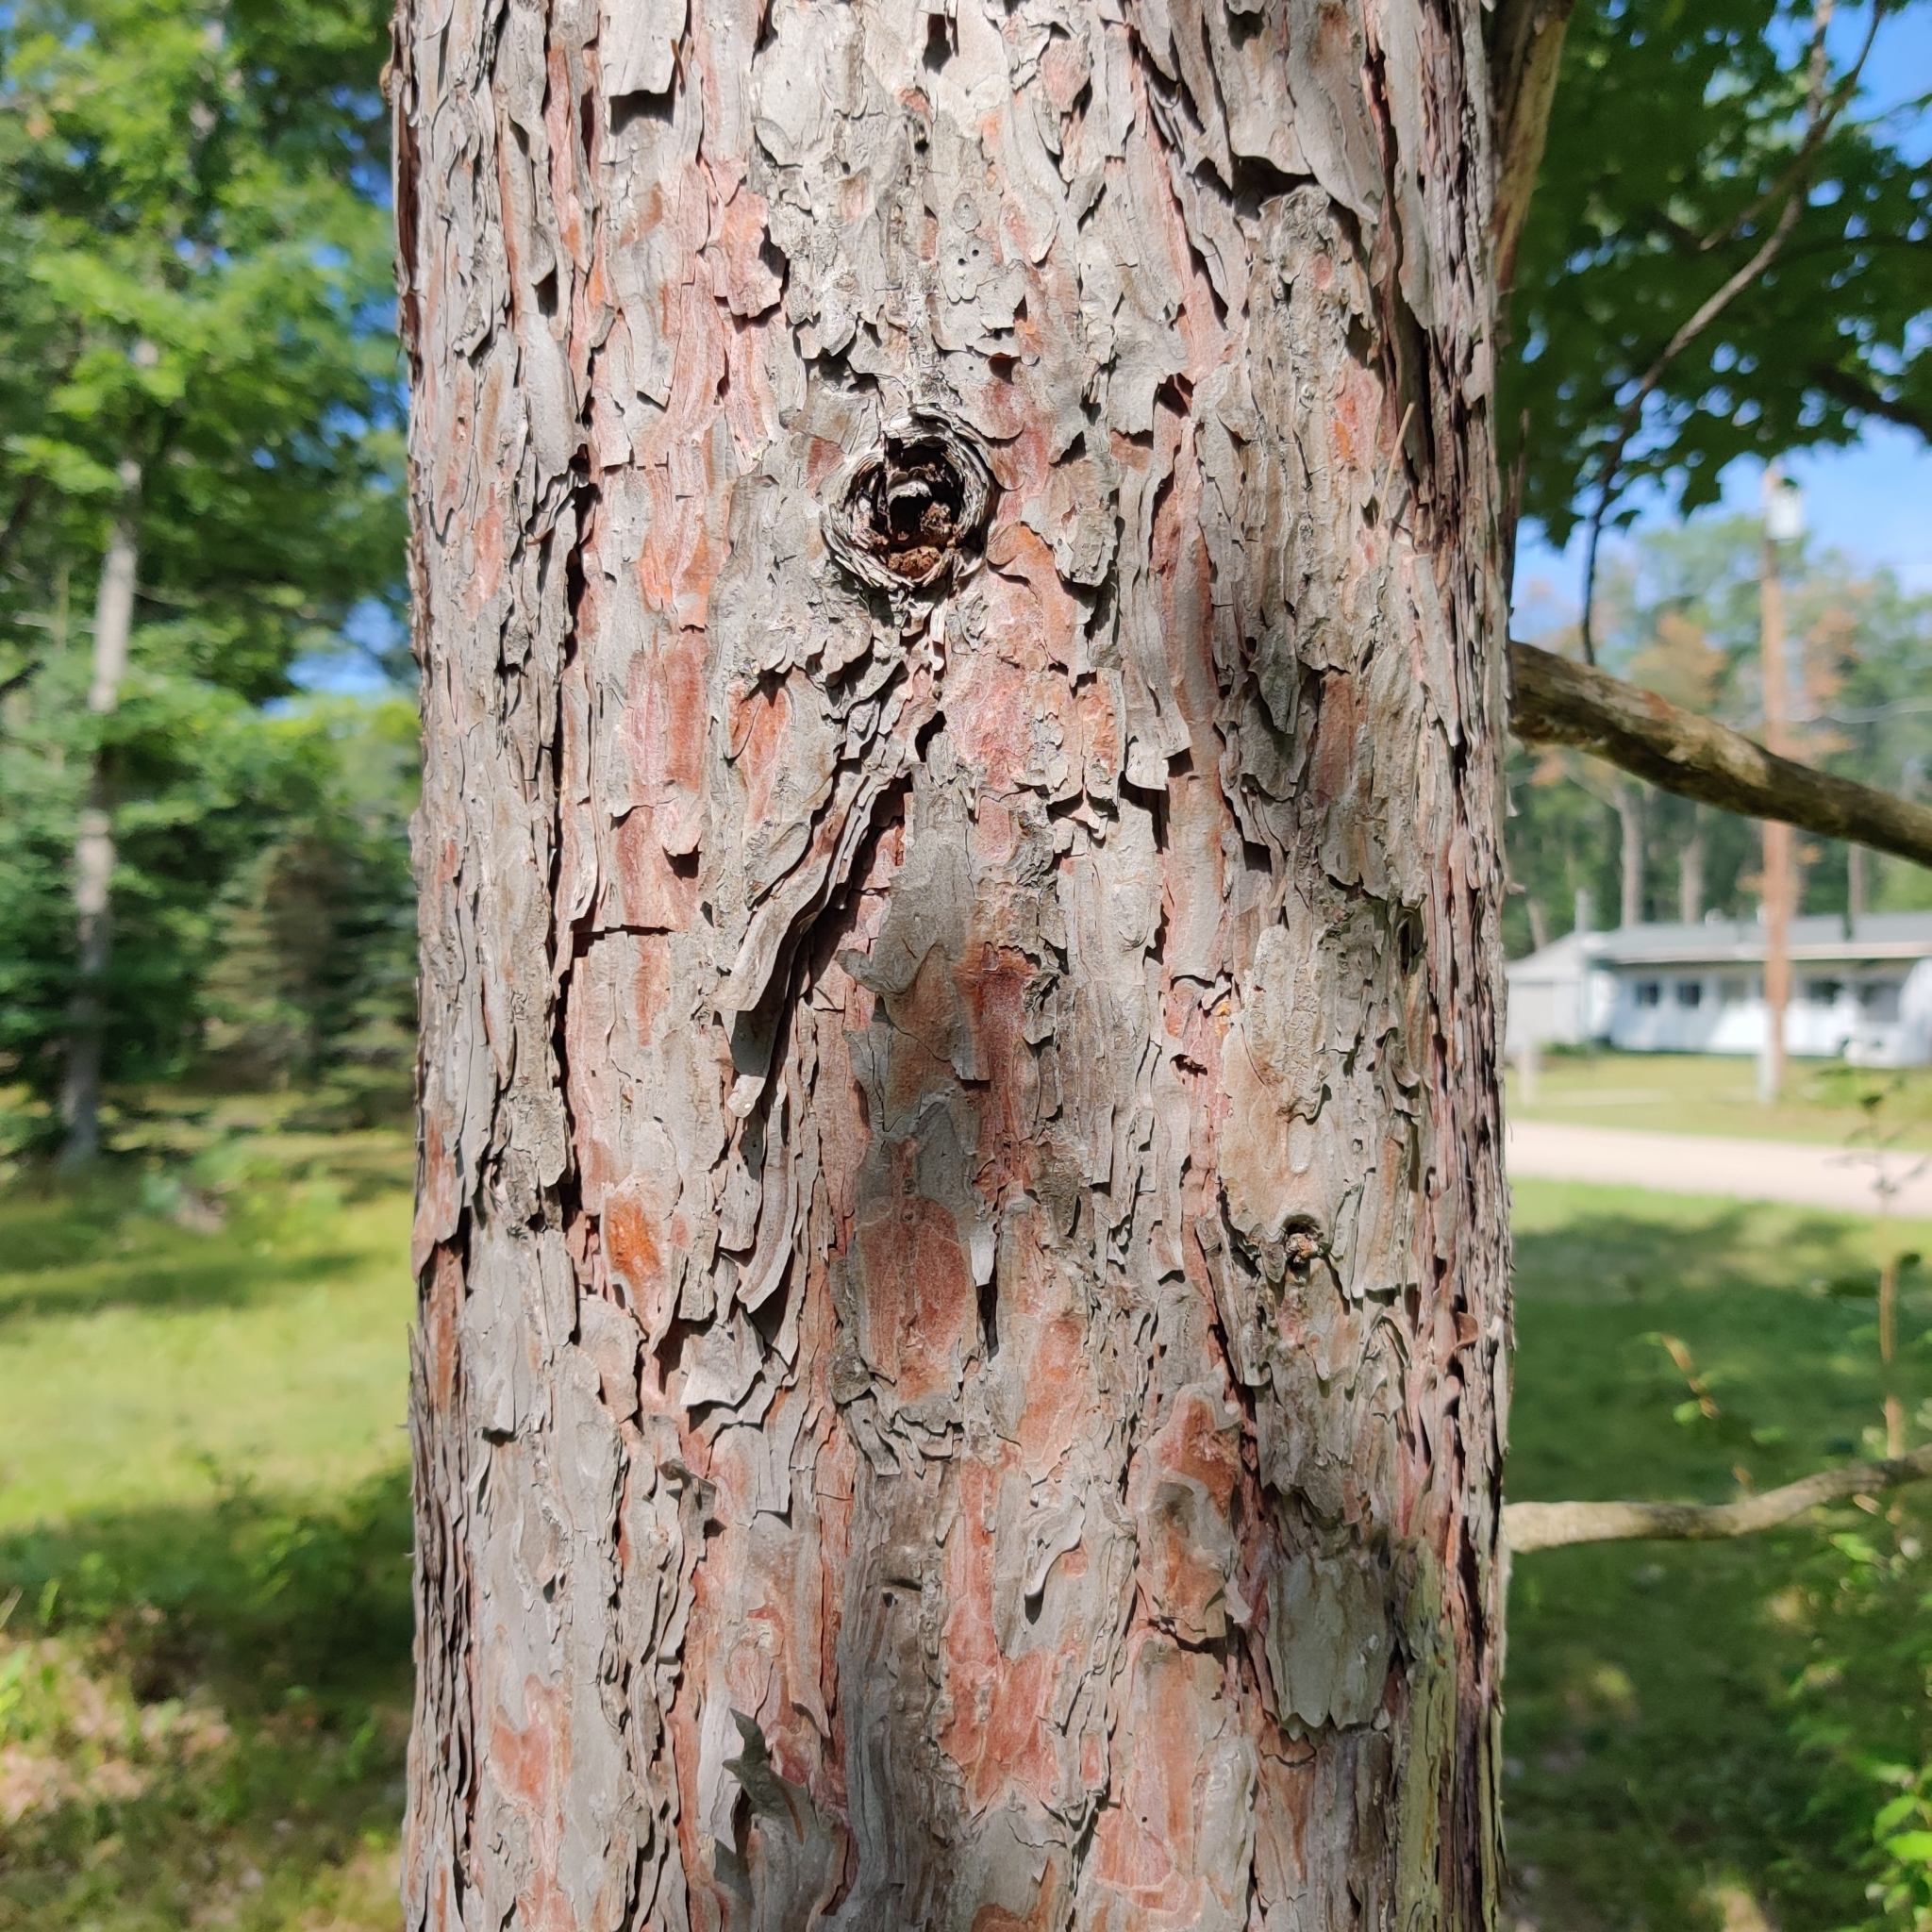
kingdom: Plantae
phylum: Tracheophyta
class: Pinopsida
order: Pinales
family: Pinaceae
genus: Pinus
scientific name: Pinus resinosa
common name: Norway pine
